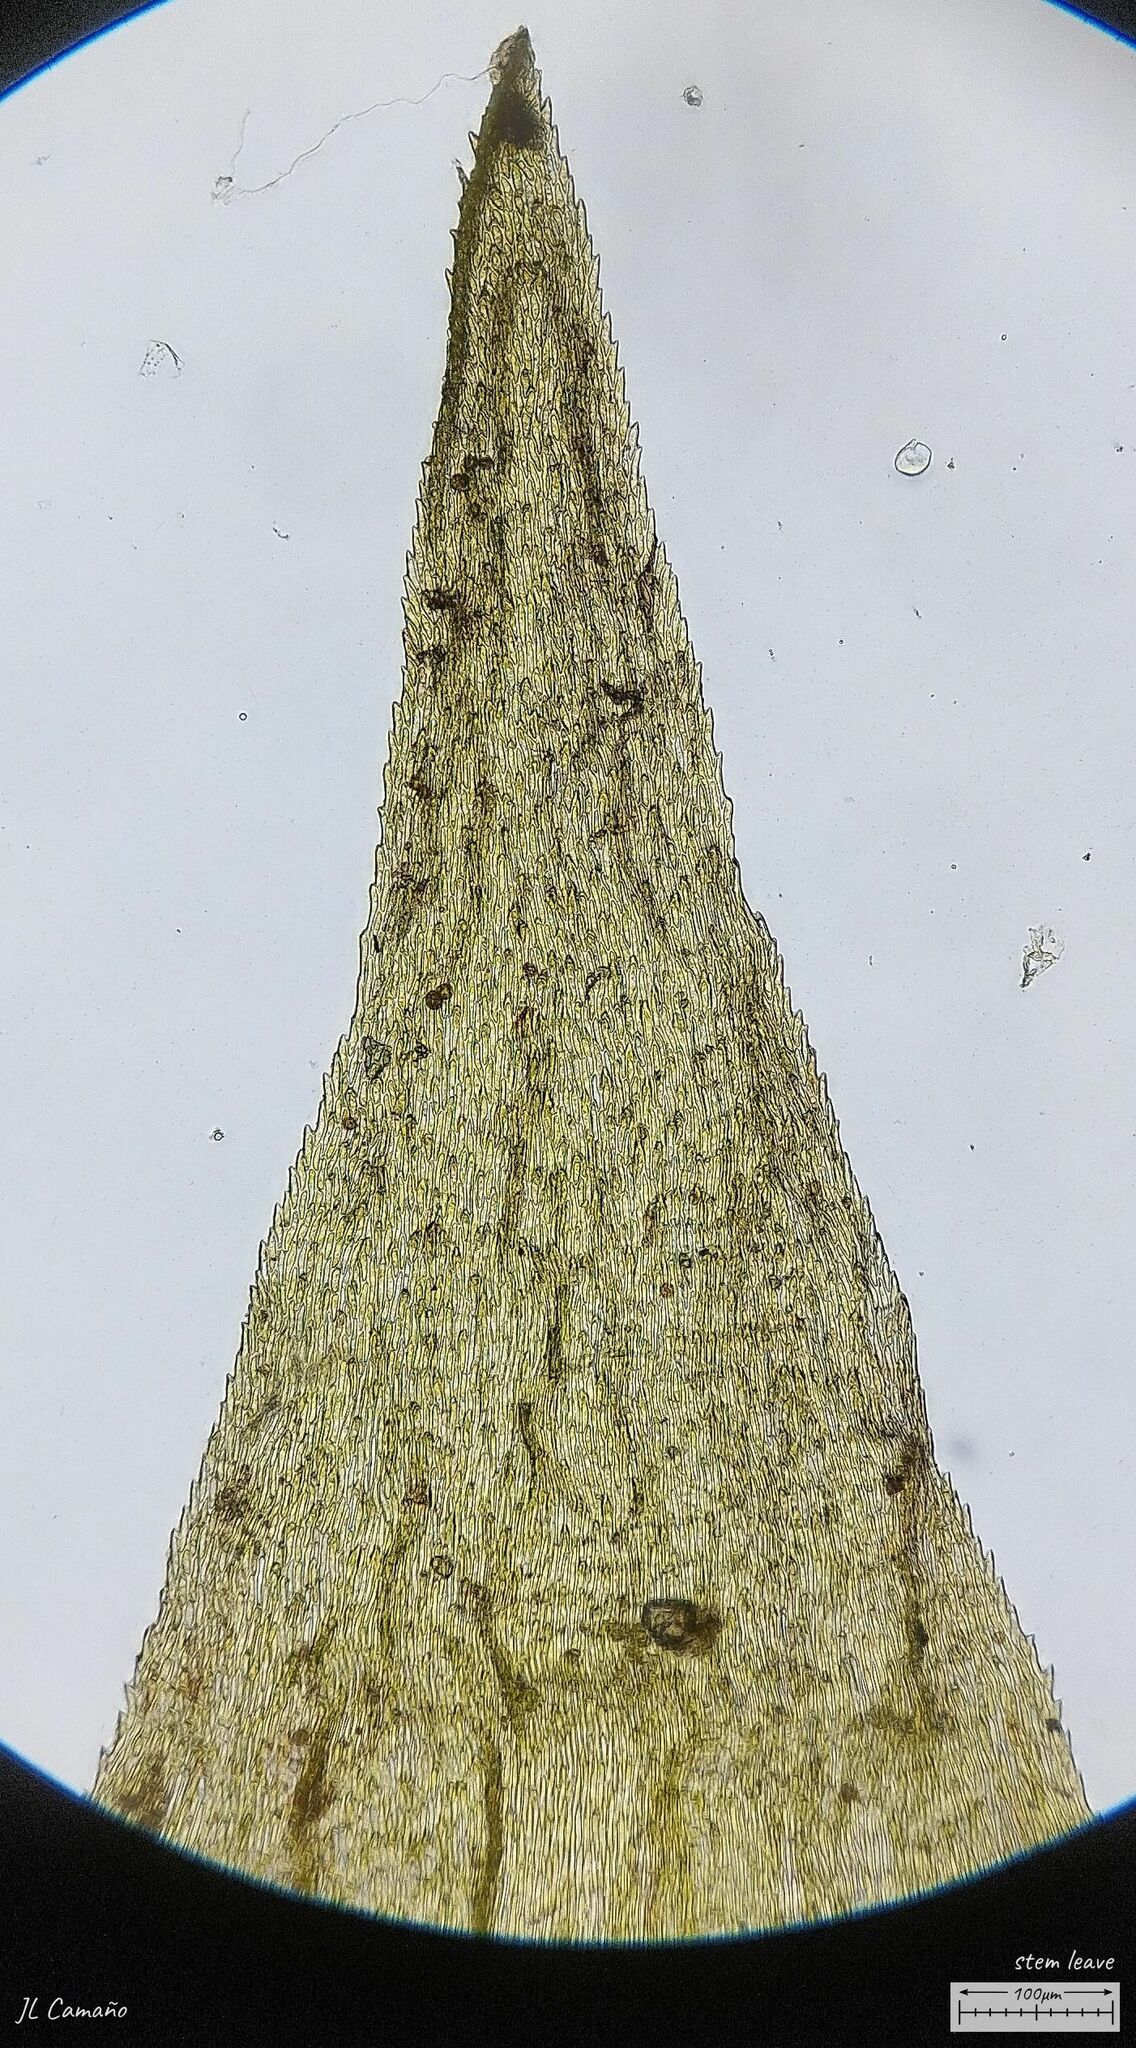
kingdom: Plantae
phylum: Bryophyta
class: Bryopsida
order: Hypnales
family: Hylocomiaceae
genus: Hylocomiadelphus
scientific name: Hylocomiadelphus triquetrus
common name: Rough goose neck moss
